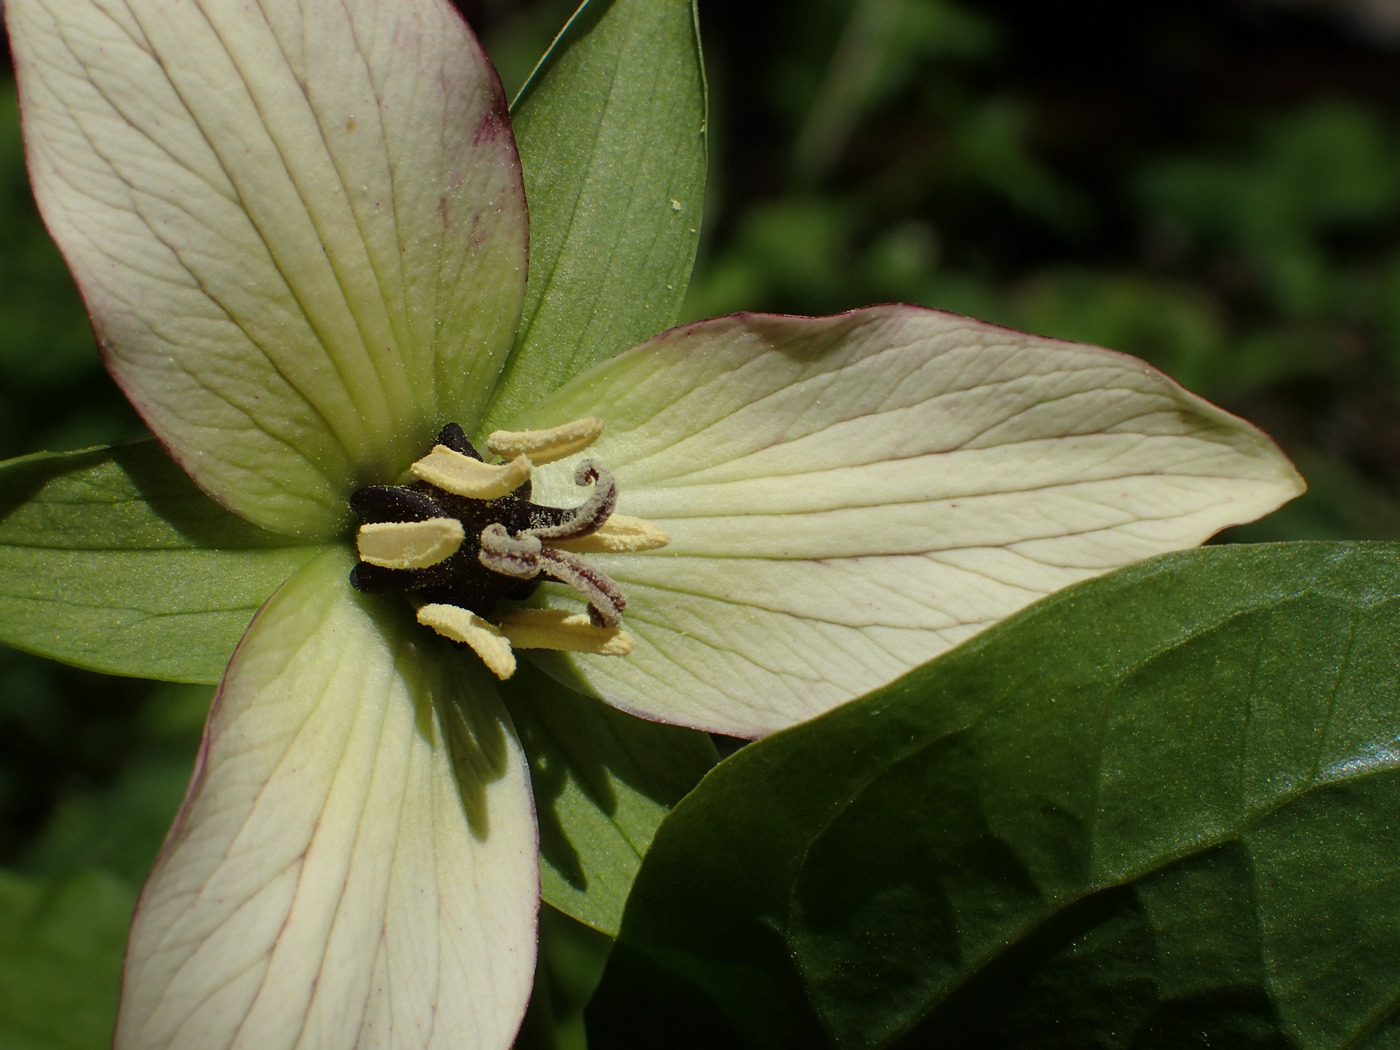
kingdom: Plantae
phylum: Tracheophyta
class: Liliopsida
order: Liliales
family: Melanthiaceae
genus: Trillium
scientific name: Trillium erectum
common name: Purple trillium
